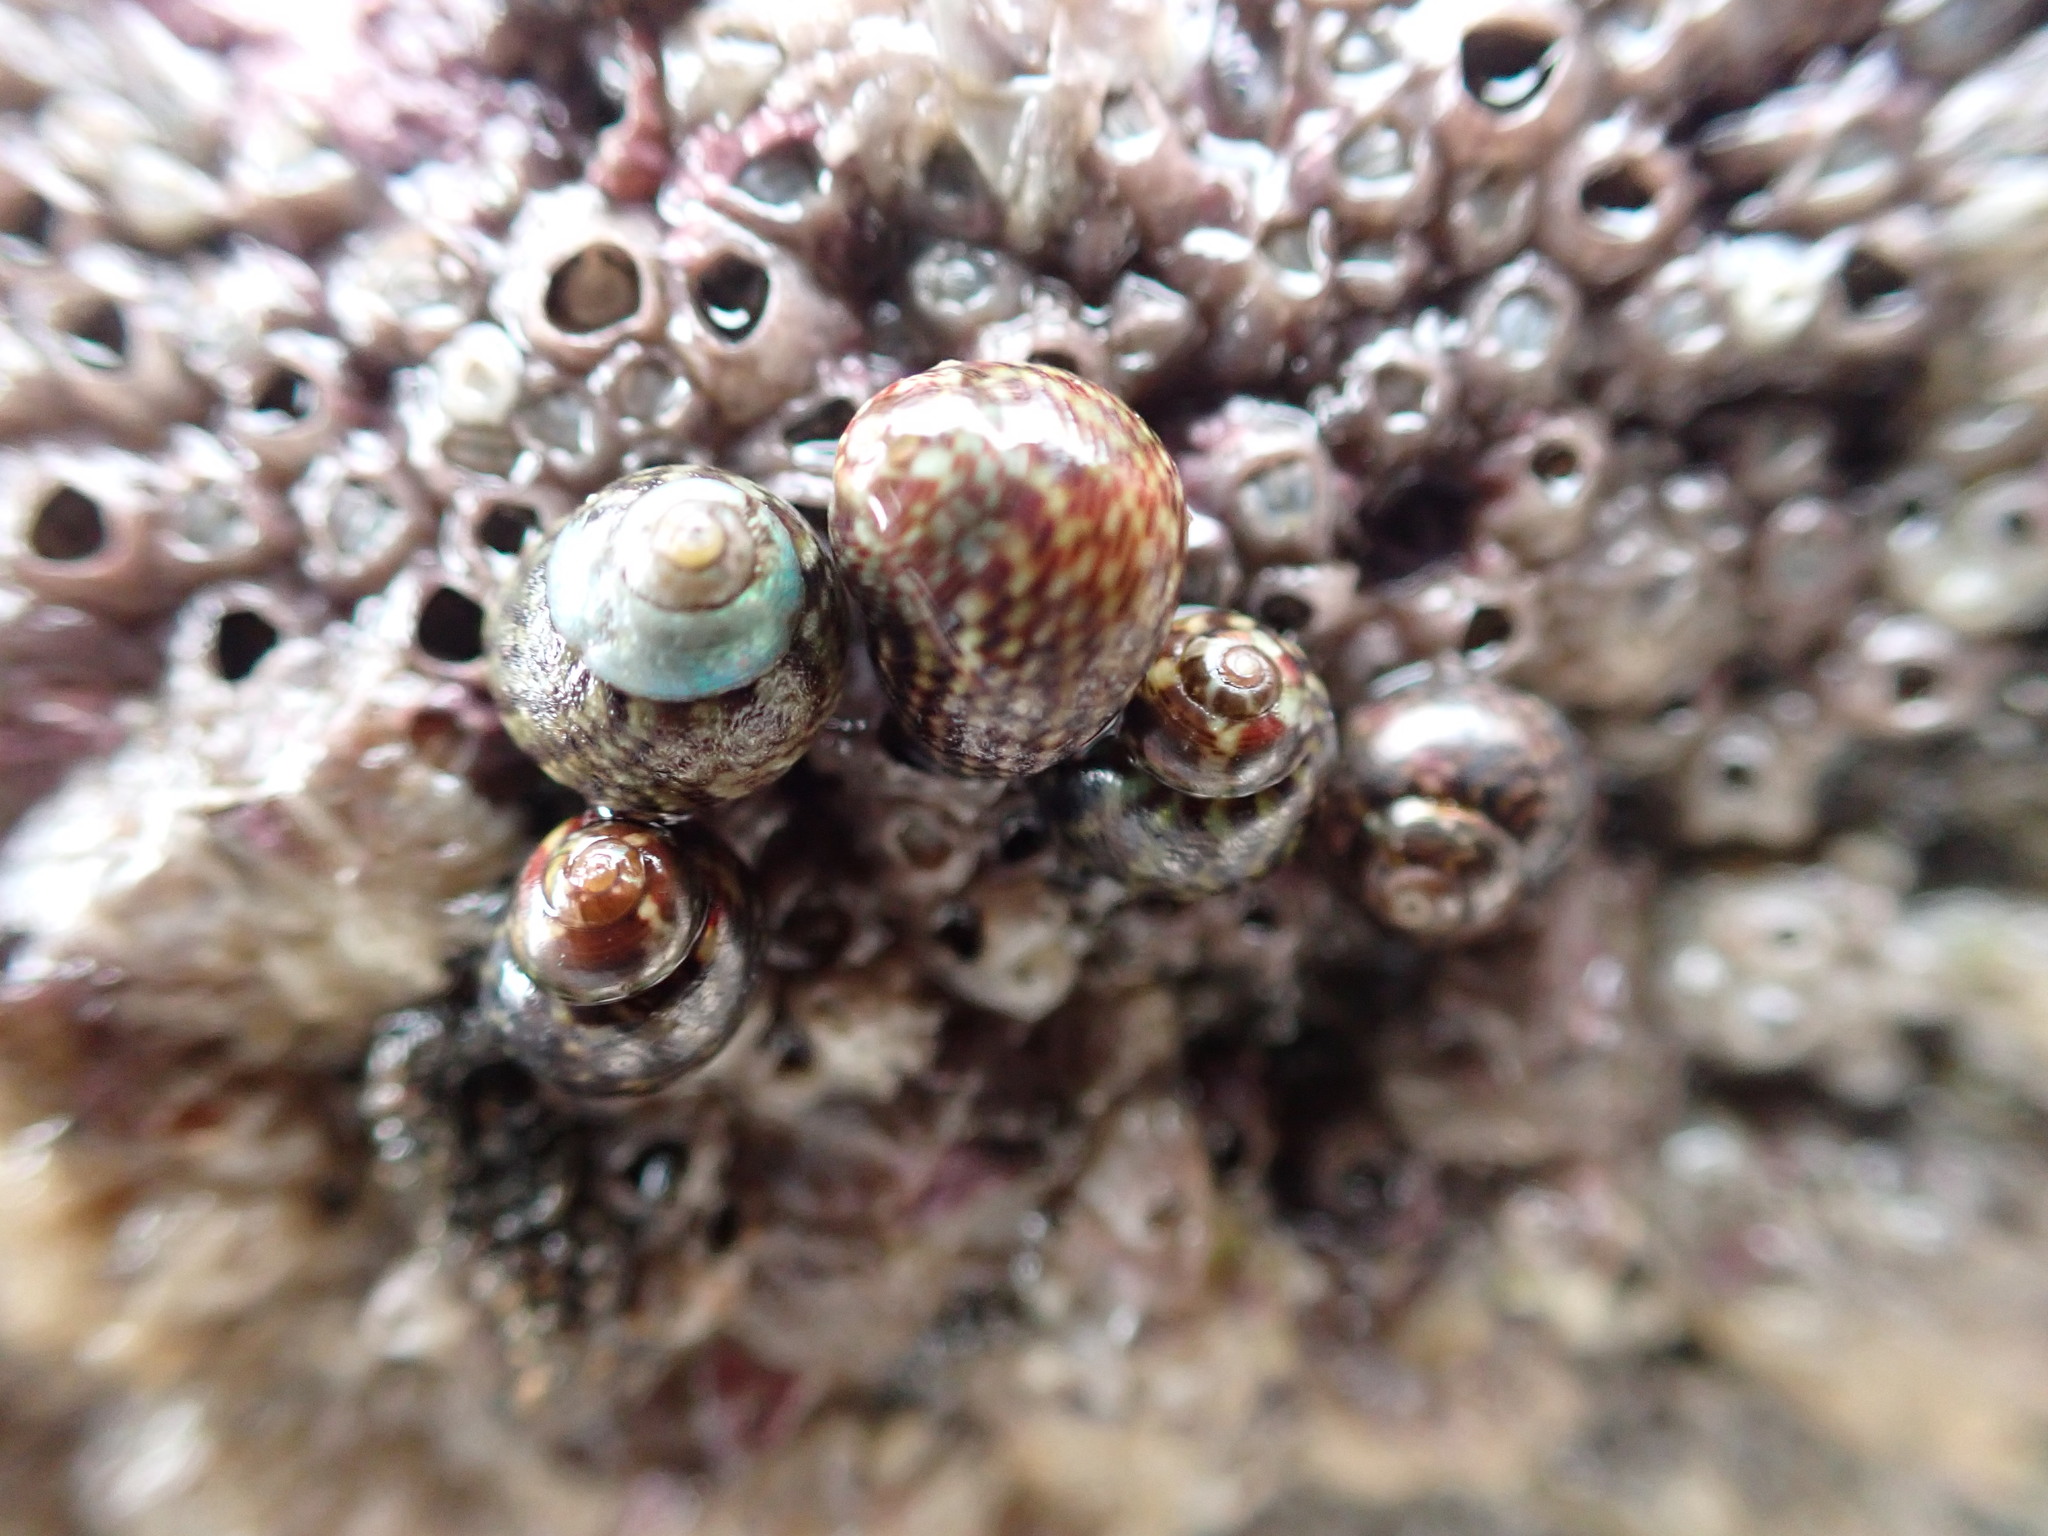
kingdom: Animalia
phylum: Mollusca
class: Gastropoda
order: Trochida
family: Trochidae
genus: Micrelenchus
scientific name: Micrelenchus tessellatus
